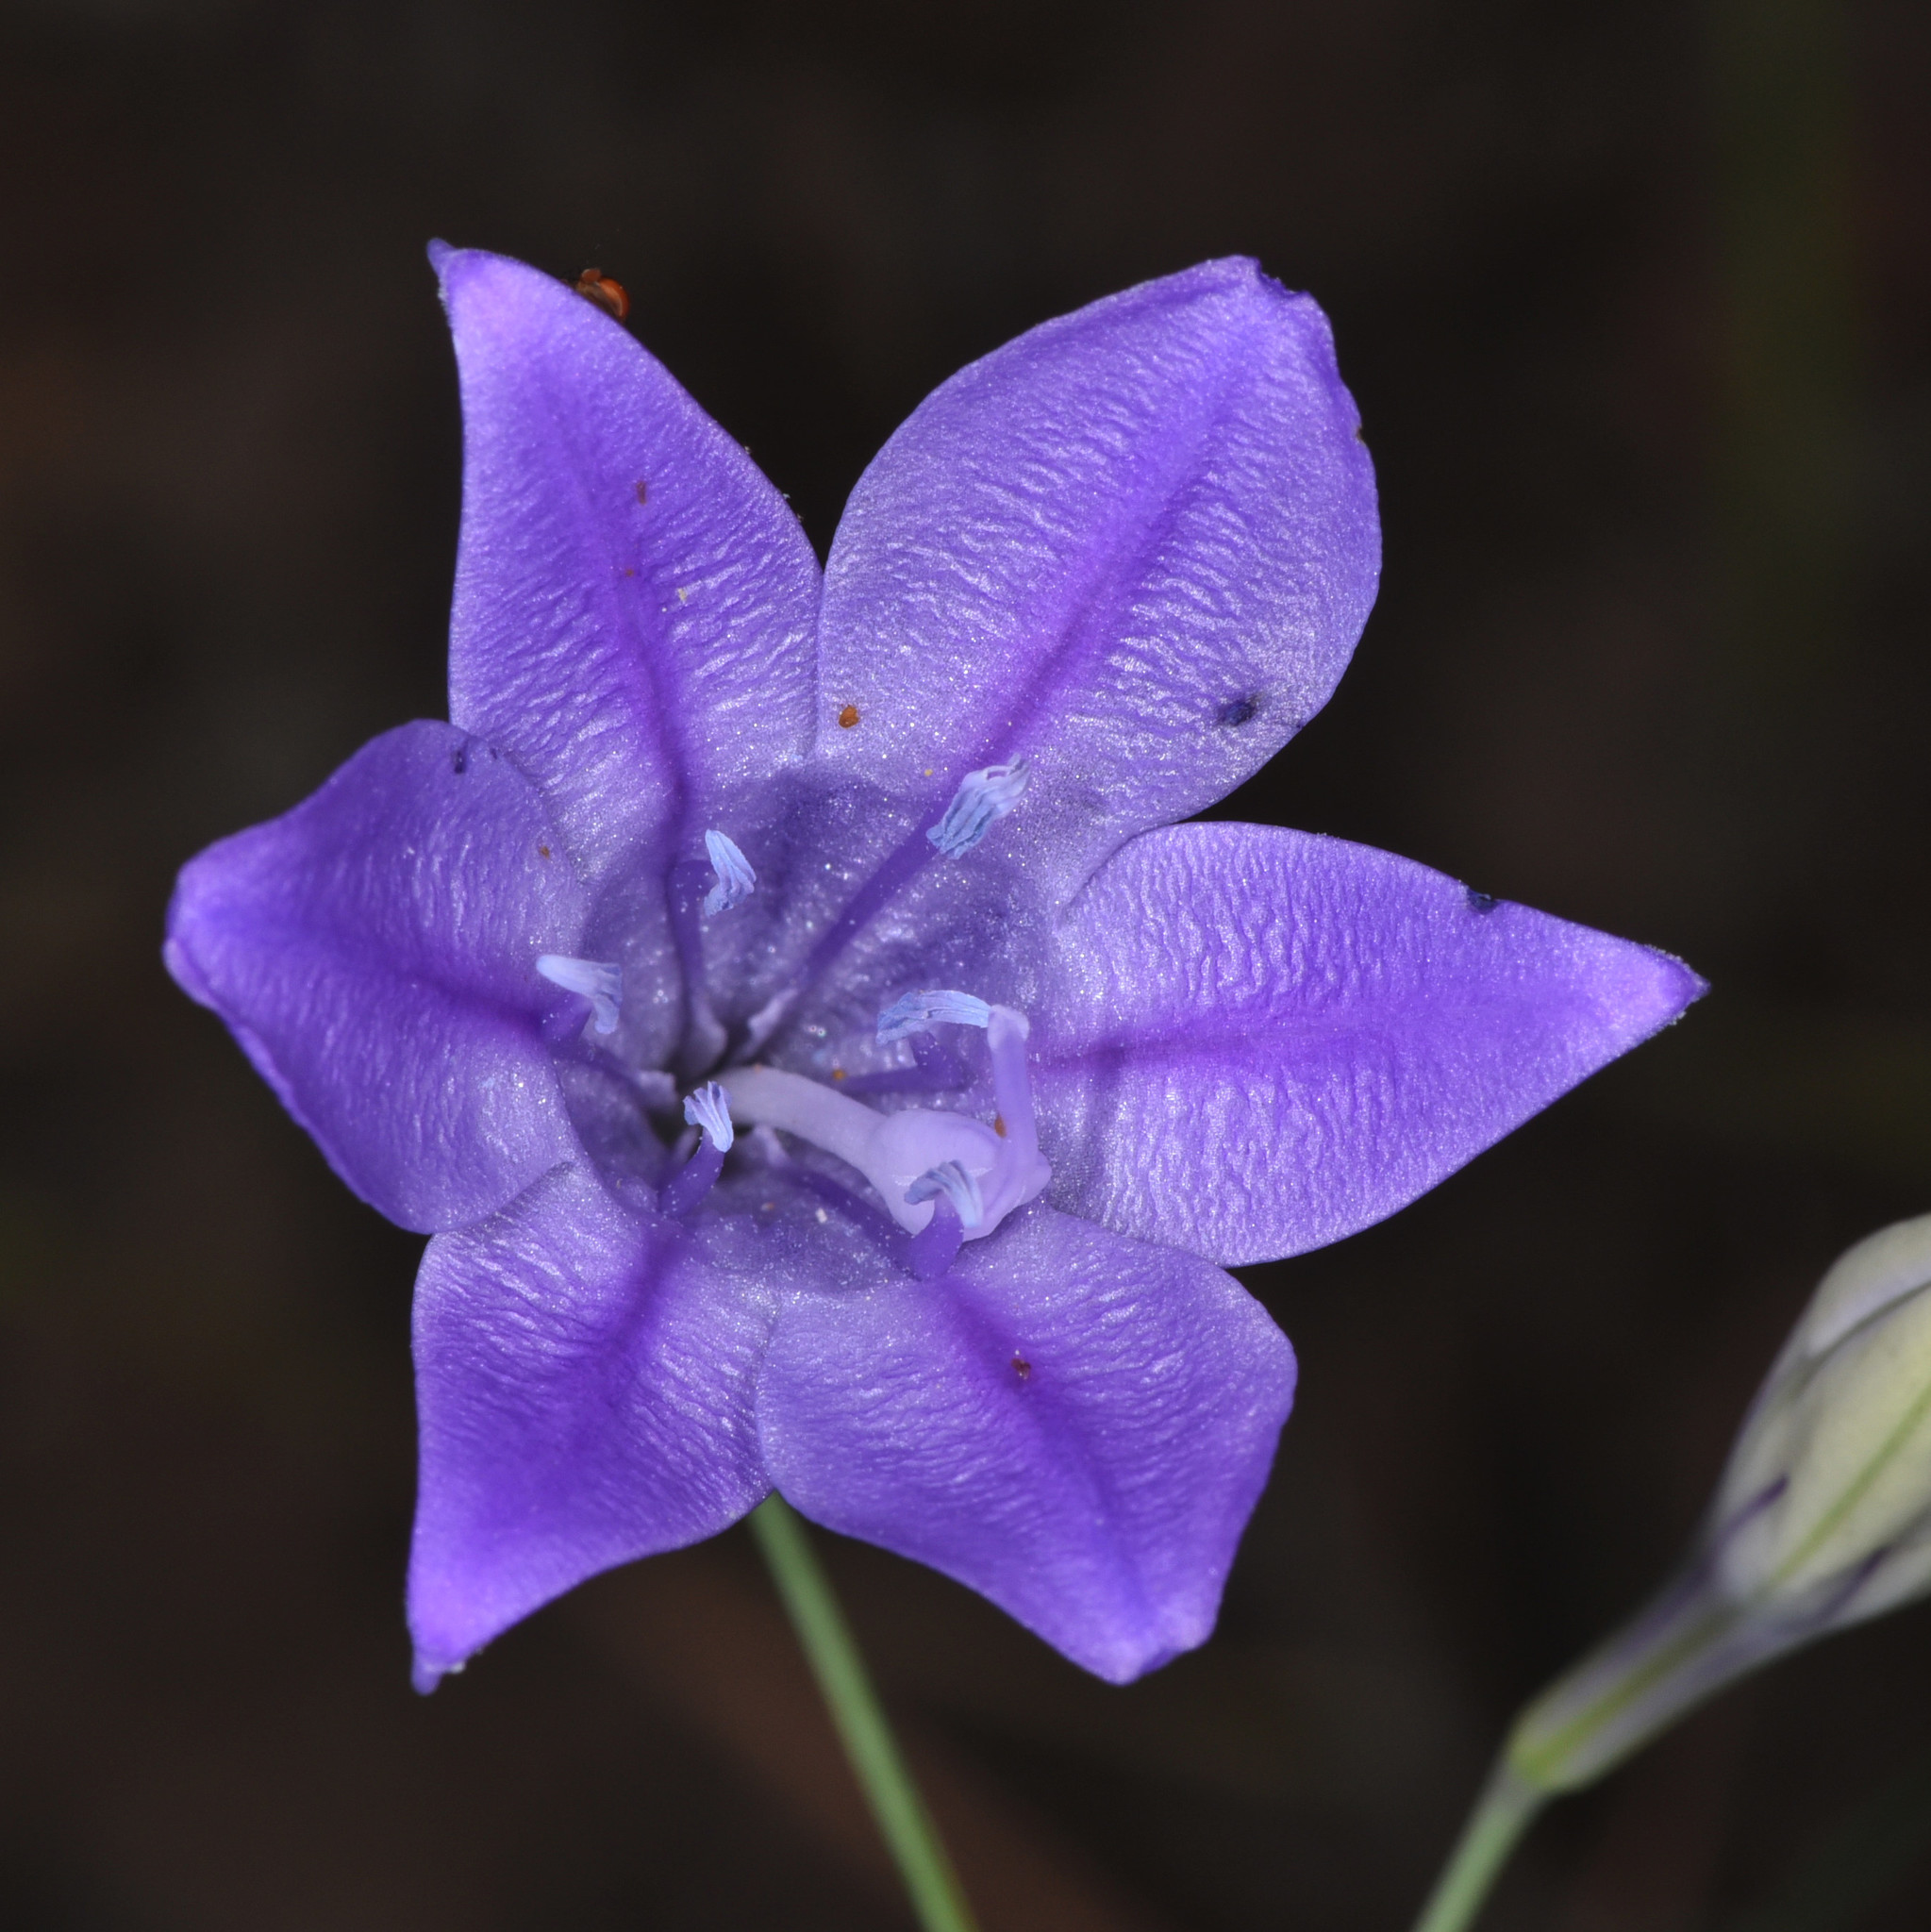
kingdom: Plantae
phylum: Tracheophyta
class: Liliopsida
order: Asparagales
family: Asparagaceae
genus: Triteleia
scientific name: Triteleia laxa
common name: Triplet-lily
